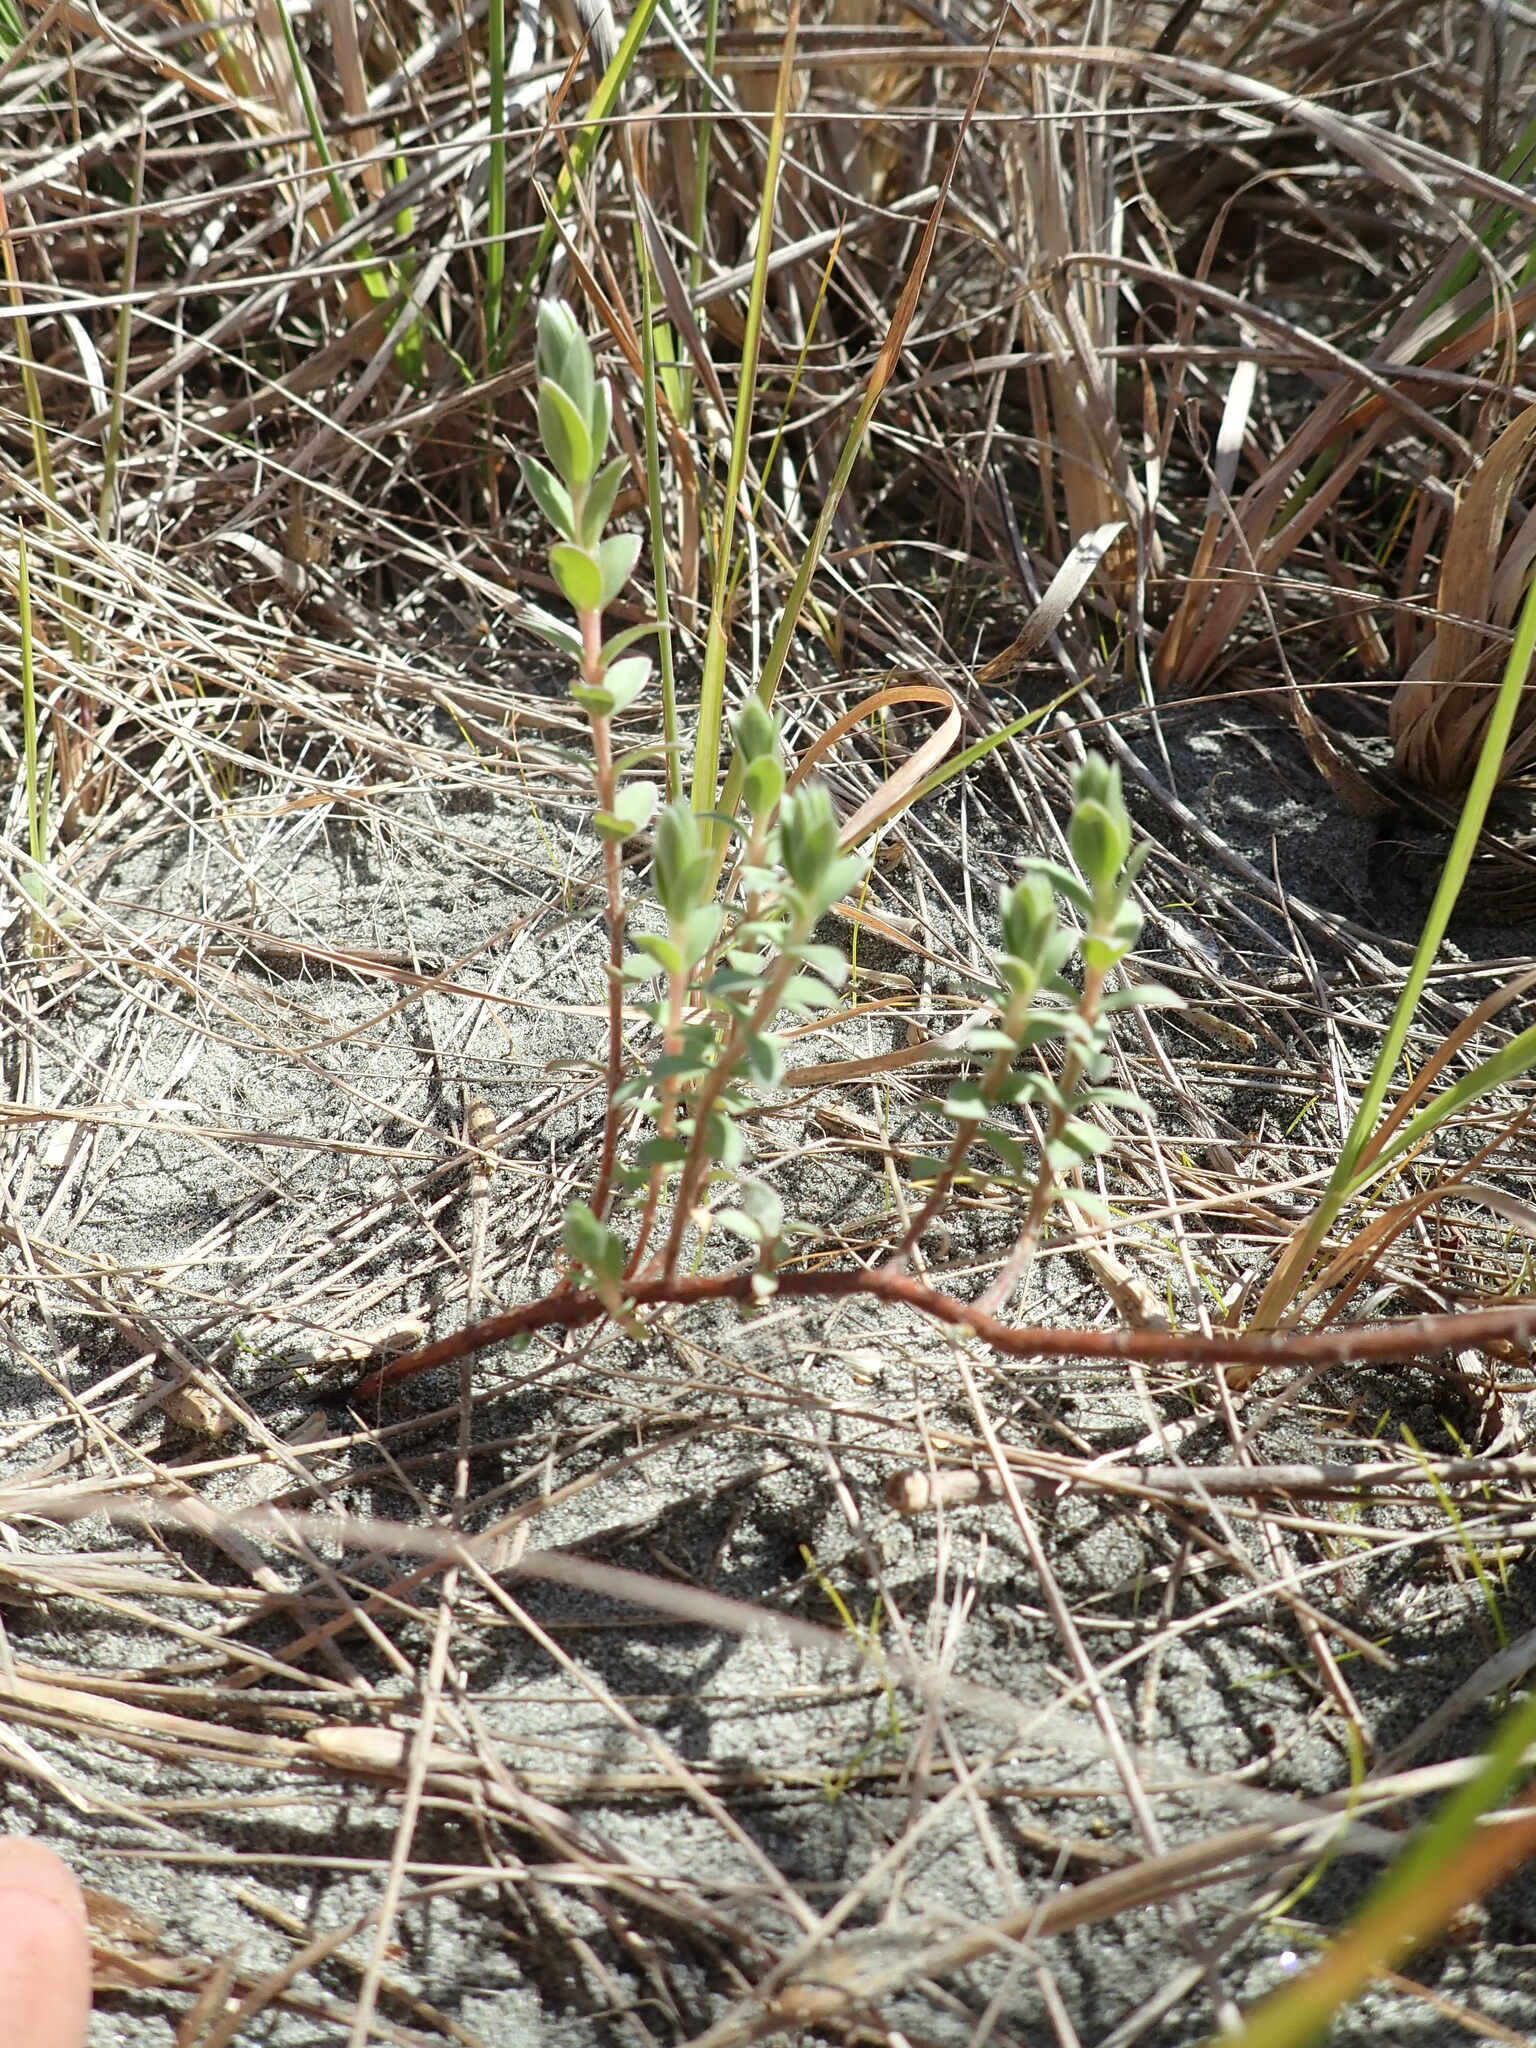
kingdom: Plantae
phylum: Tracheophyta
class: Magnoliopsida
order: Malvales
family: Thymelaeaceae
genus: Pimelea
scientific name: Pimelea villosa
